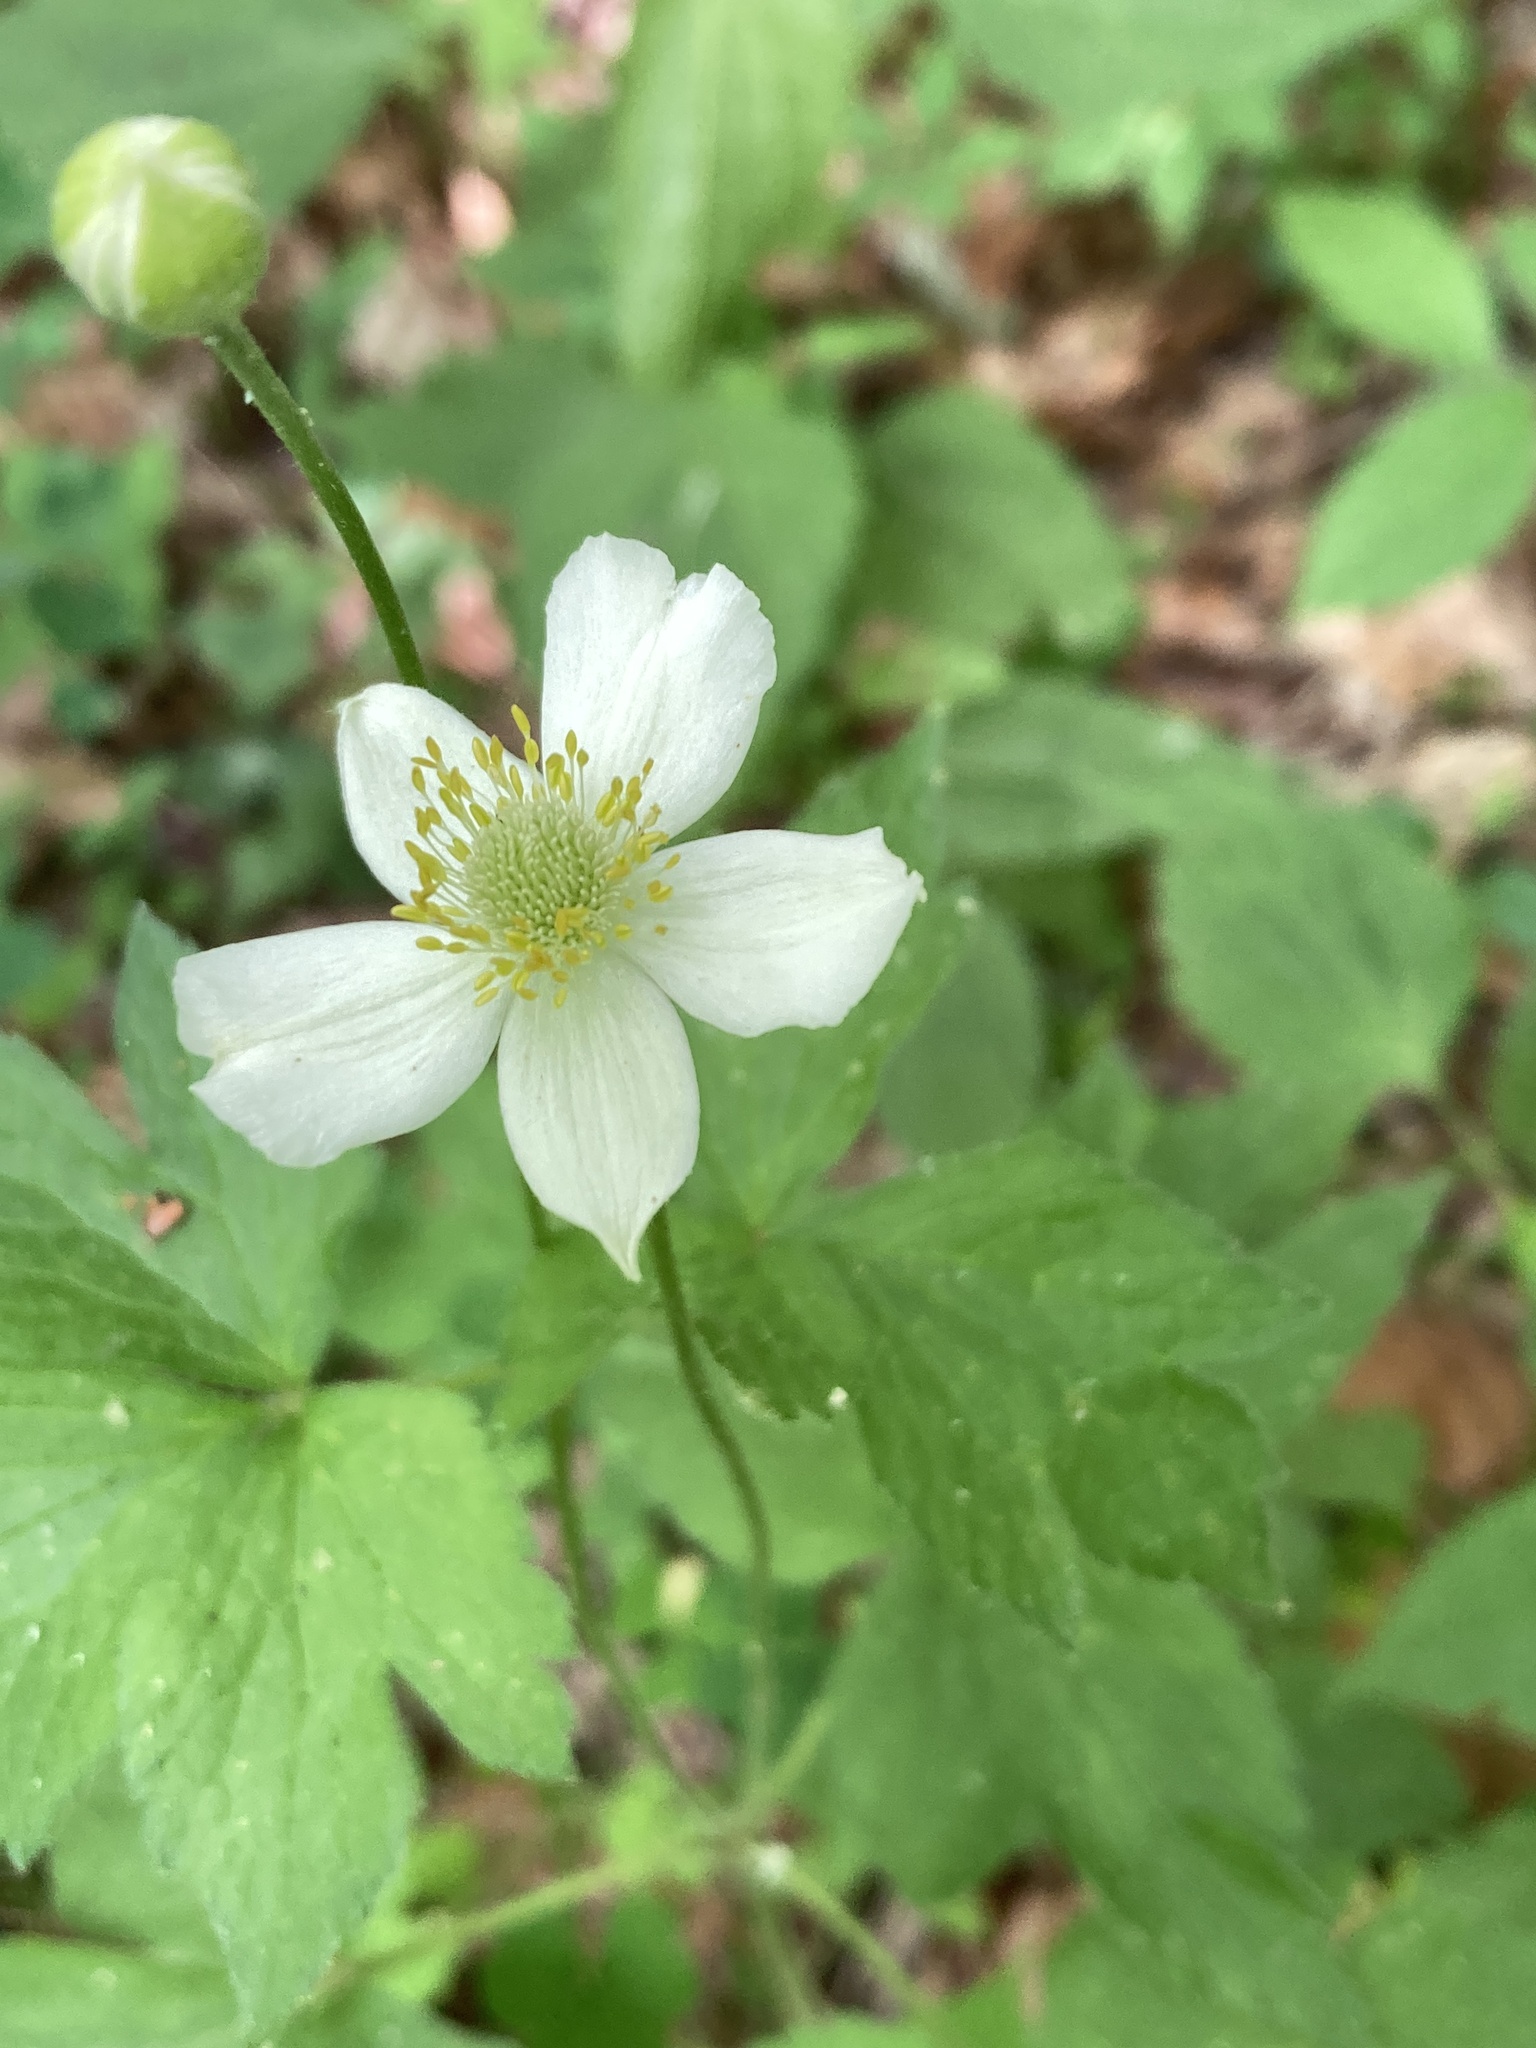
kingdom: Plantae
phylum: Tracheophyta
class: Magnoliopsida
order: Ranunculales
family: Ranunculaceae
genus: Anemone
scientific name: Anemone virginiana
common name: Tall anemone
